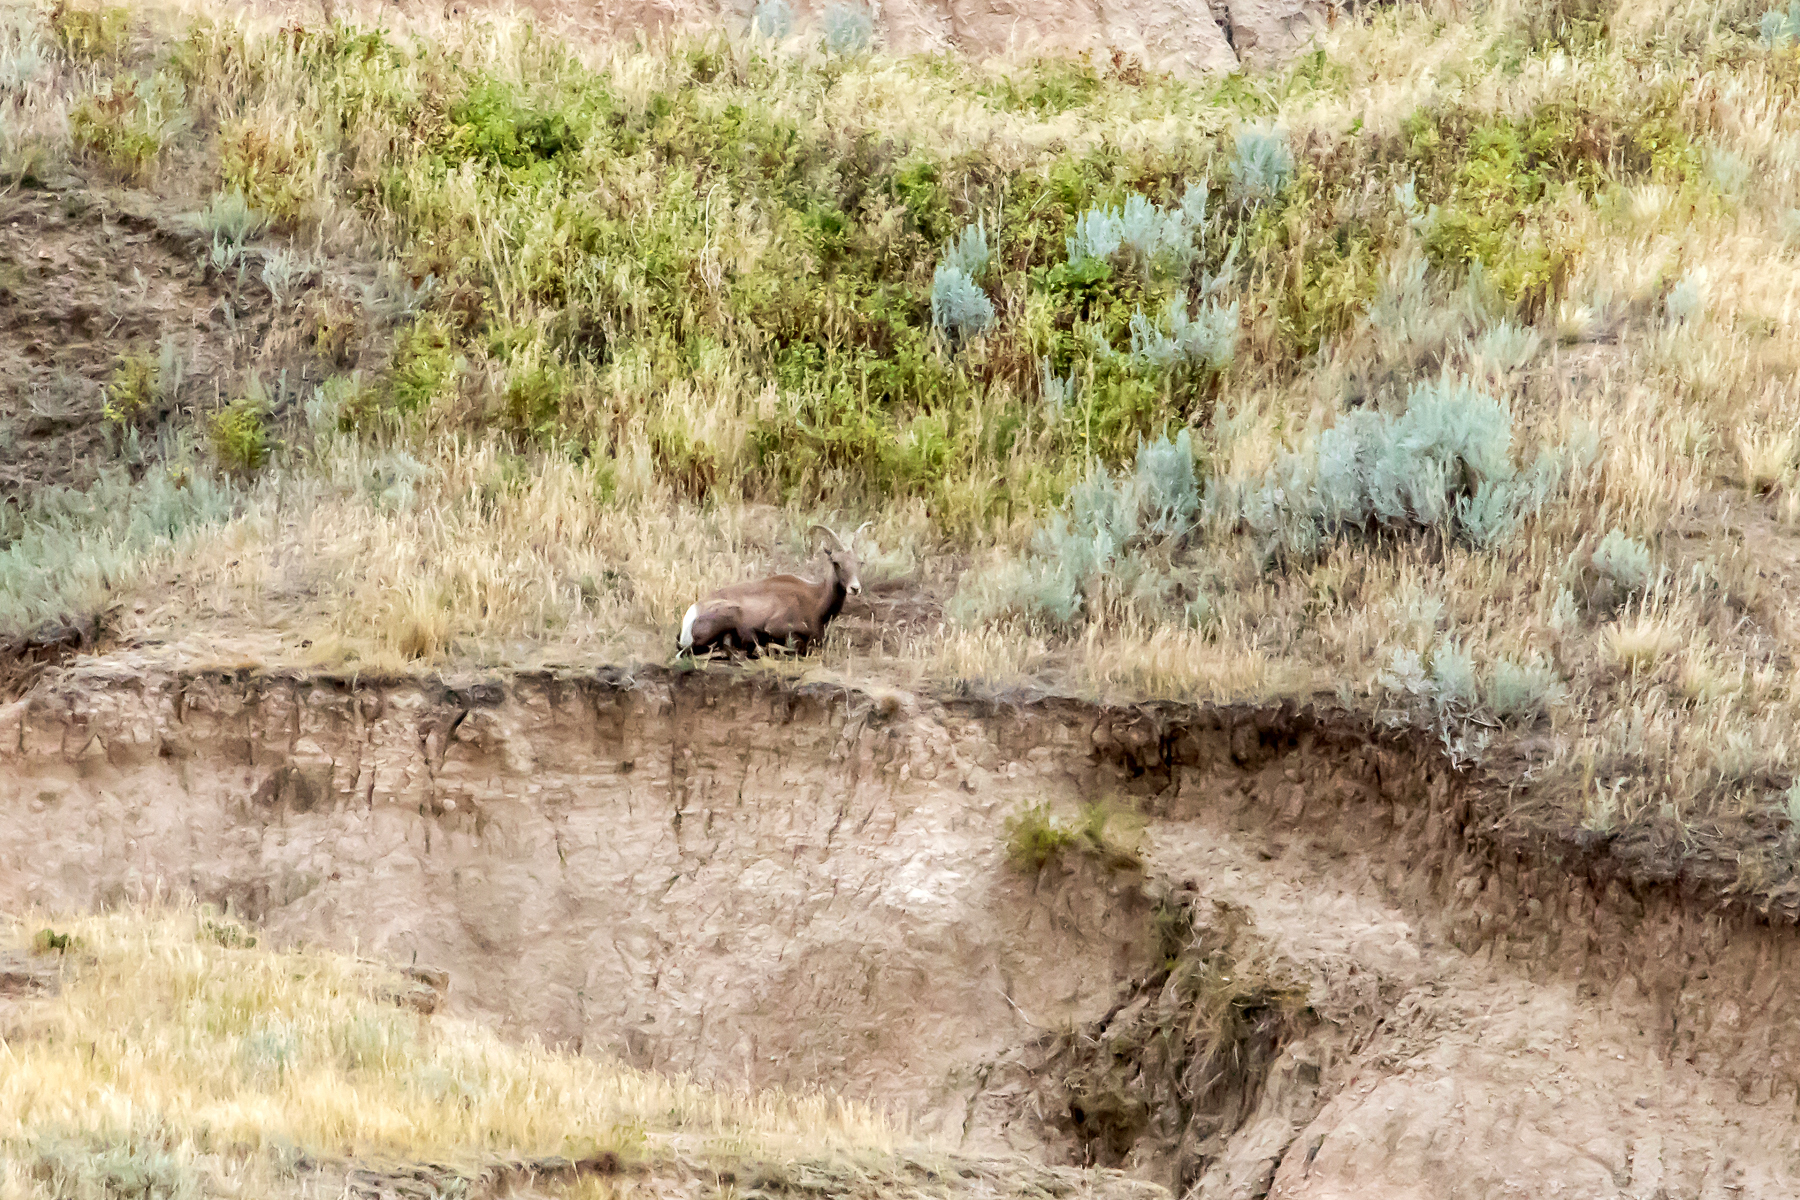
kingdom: Animalia
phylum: Chordata
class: Mammalia
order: Artiodactyla
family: Bovidae
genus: Ovis
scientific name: Ovis canadensis
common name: Bighorn sheep
